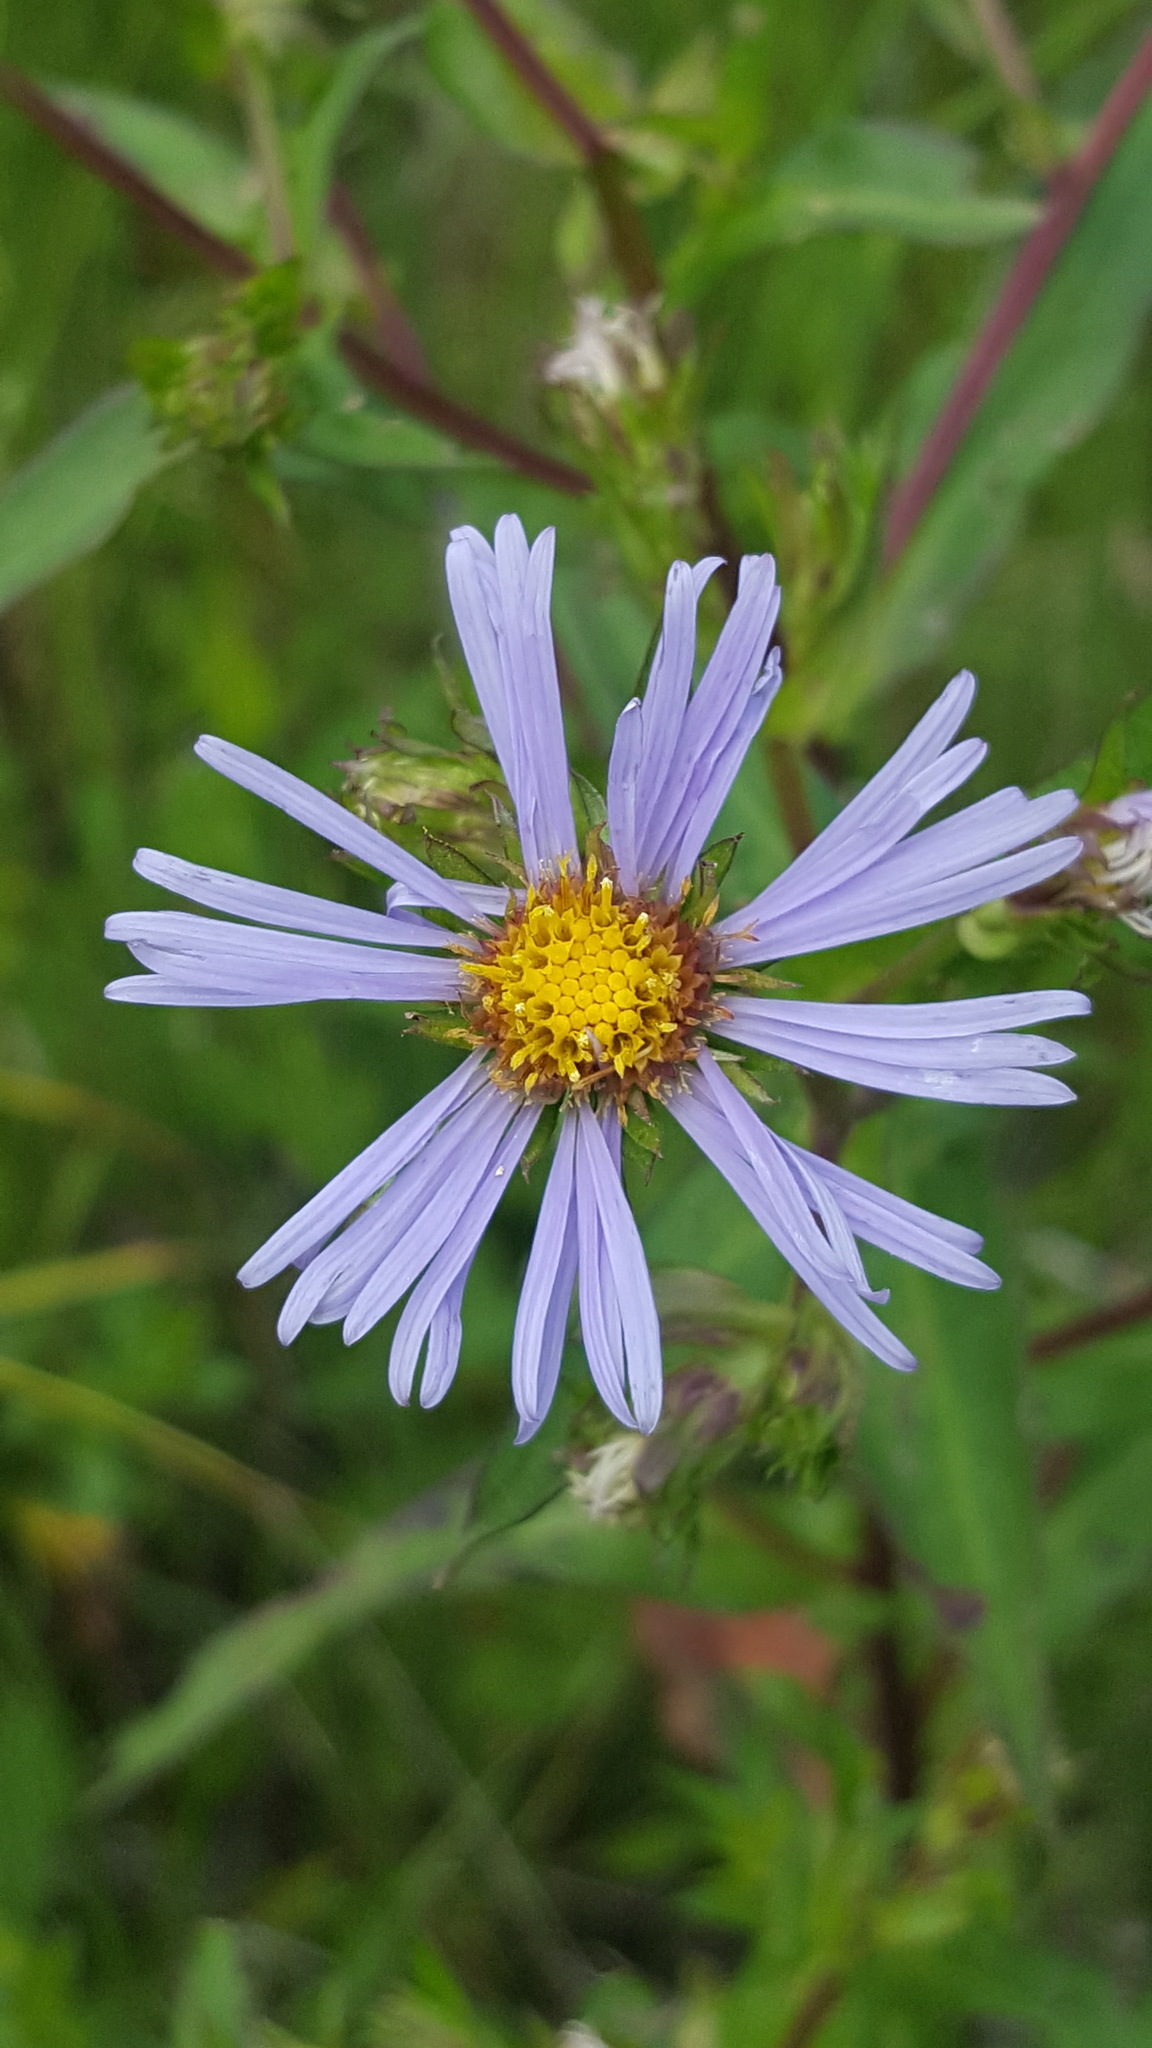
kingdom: Plantae
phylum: Tracheophyta
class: Magnoliopsida
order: Asterales
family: Asteraceae
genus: Symphyotrichum
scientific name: Symphyotrichum puniceum
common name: Bog aster
